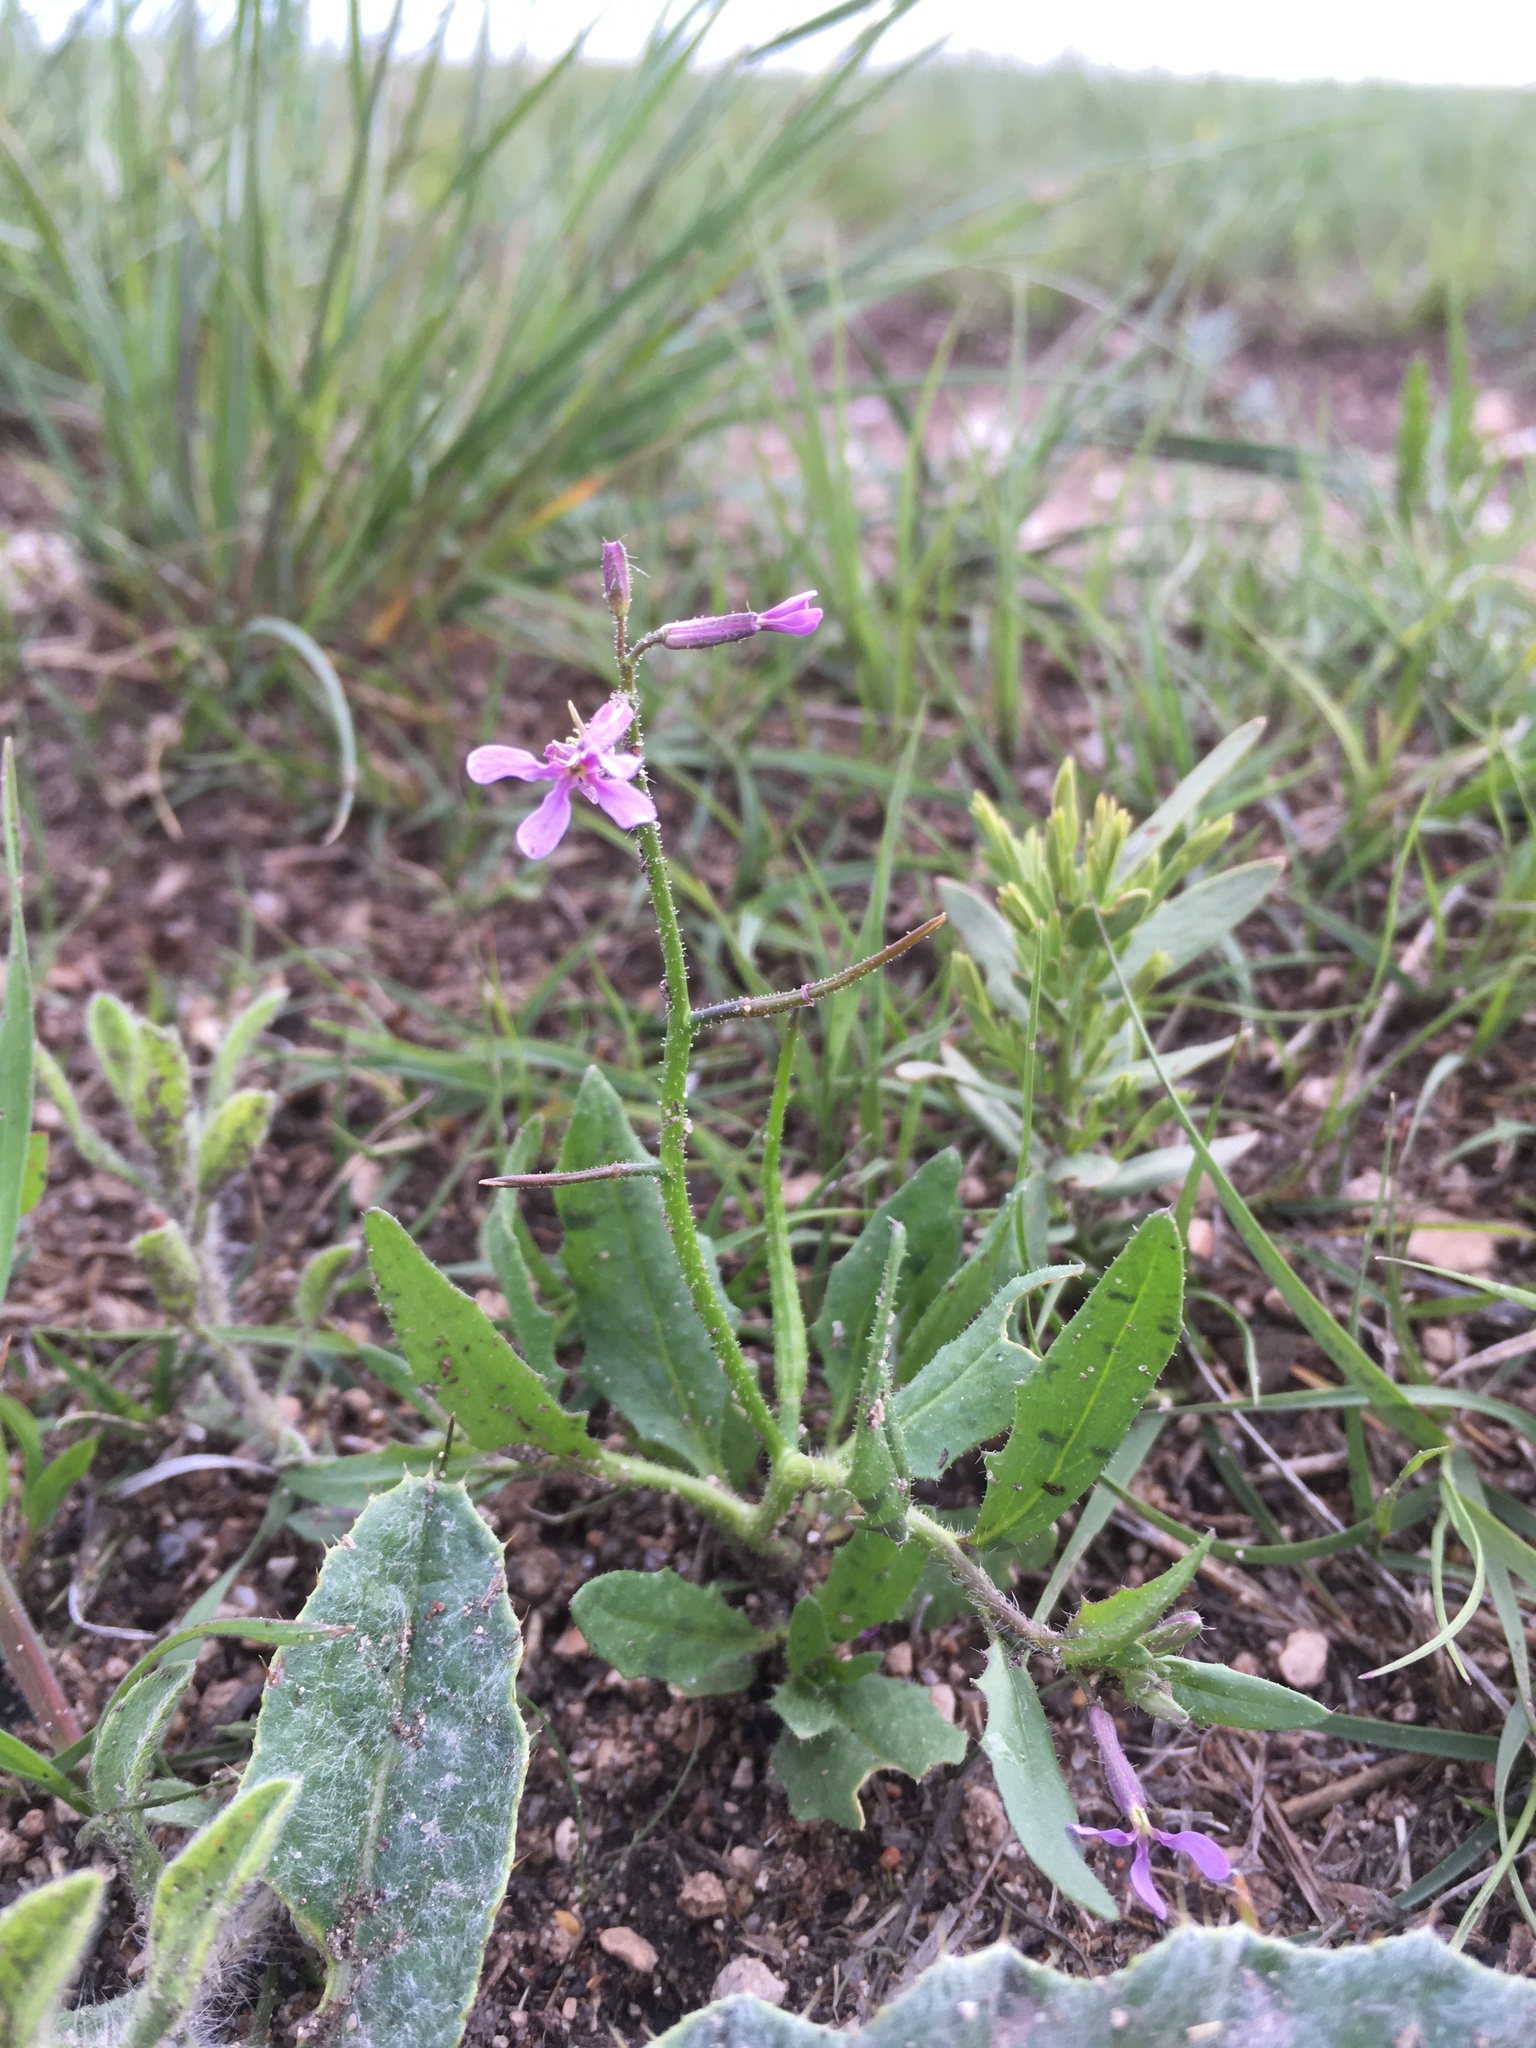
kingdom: Plantae
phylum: Tracheophyta
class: Magnoliopsida
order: Brassicales
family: Brassicaceae
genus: Chorispora
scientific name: Chorispora tenella
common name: Crossflower
